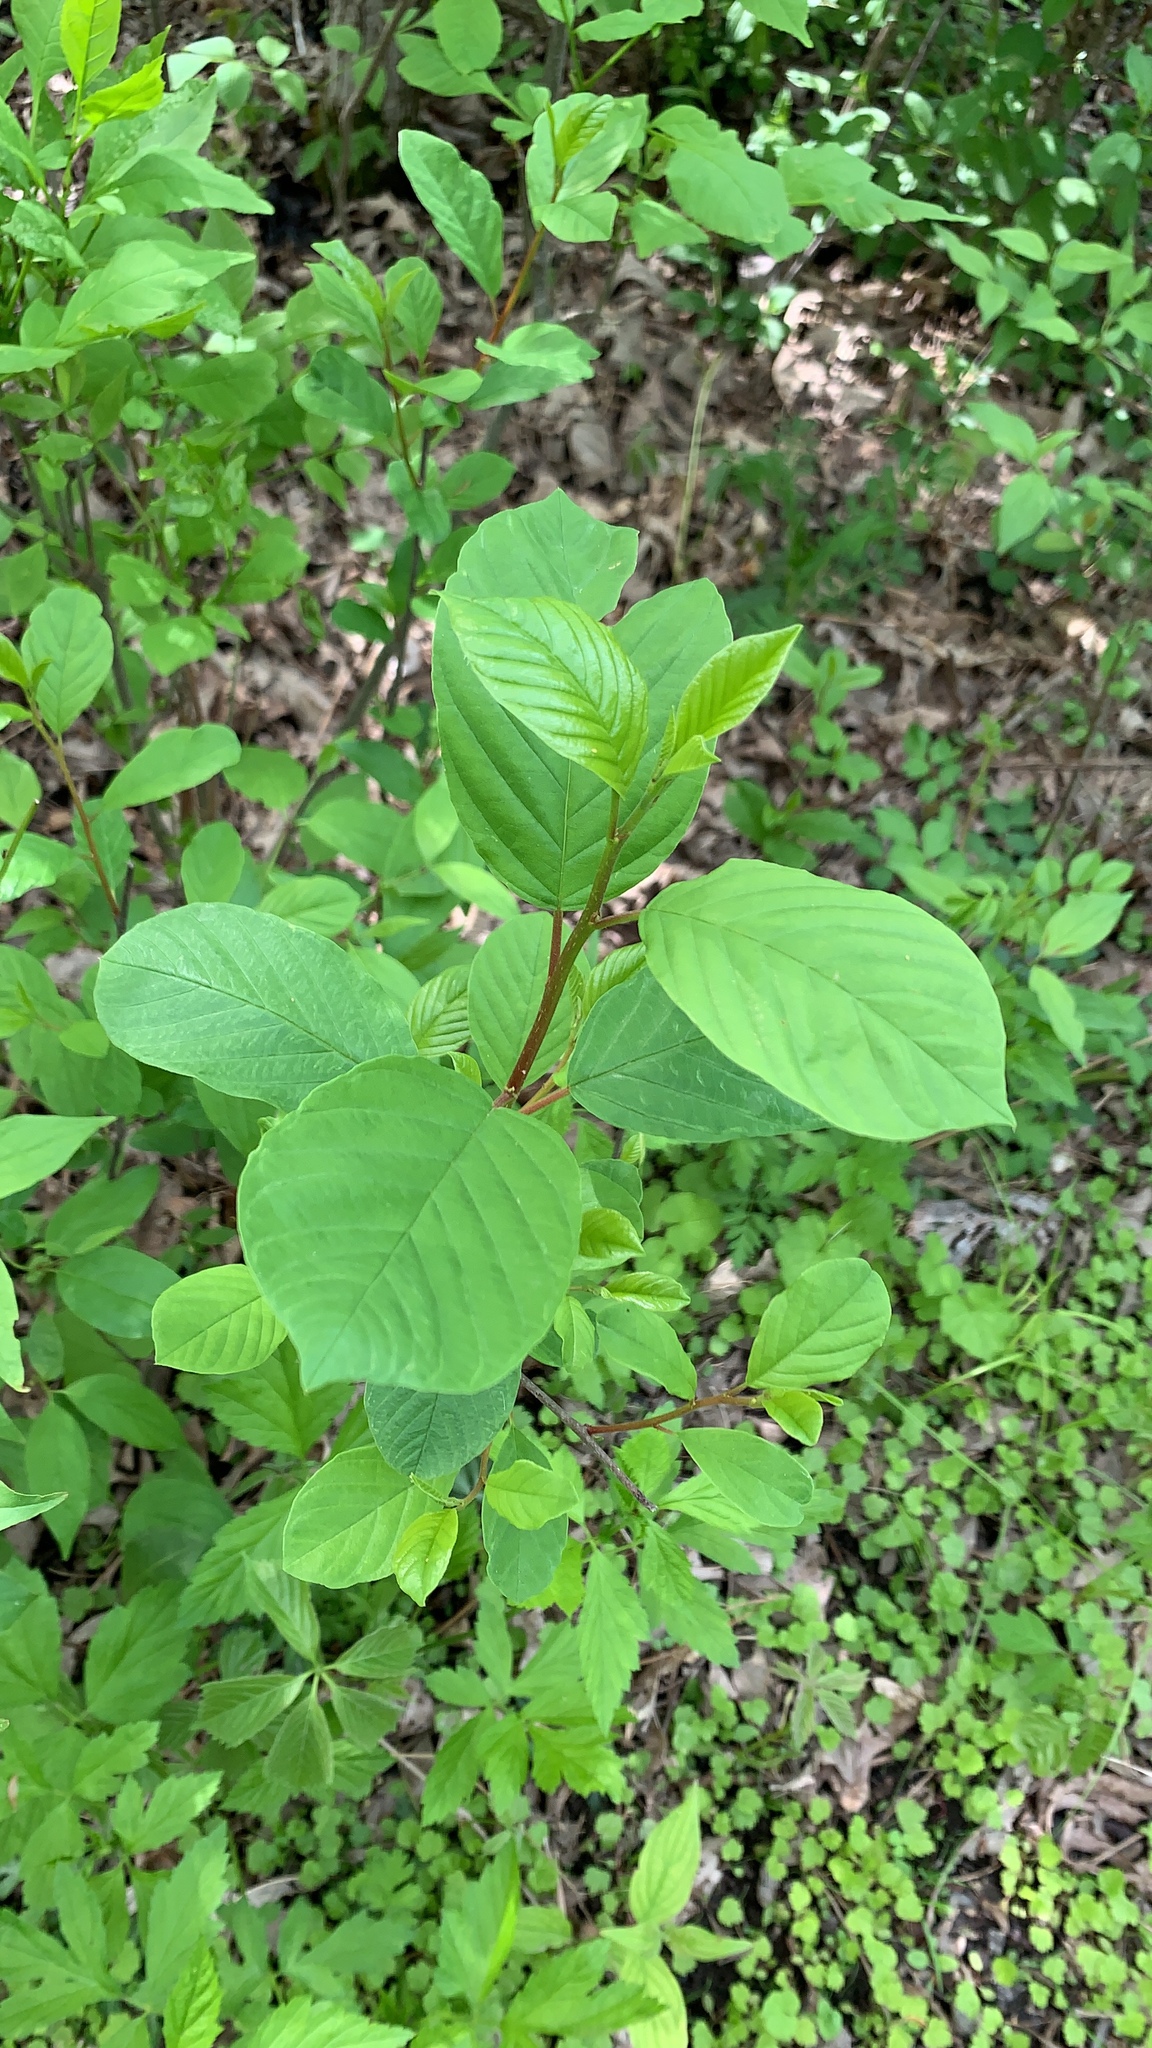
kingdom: Plantae
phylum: Tracheophyta
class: Magnoliopsida
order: Rosales
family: Rhamnaceae
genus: Frangula
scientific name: Frangula alnus
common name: Alder buckthorn
